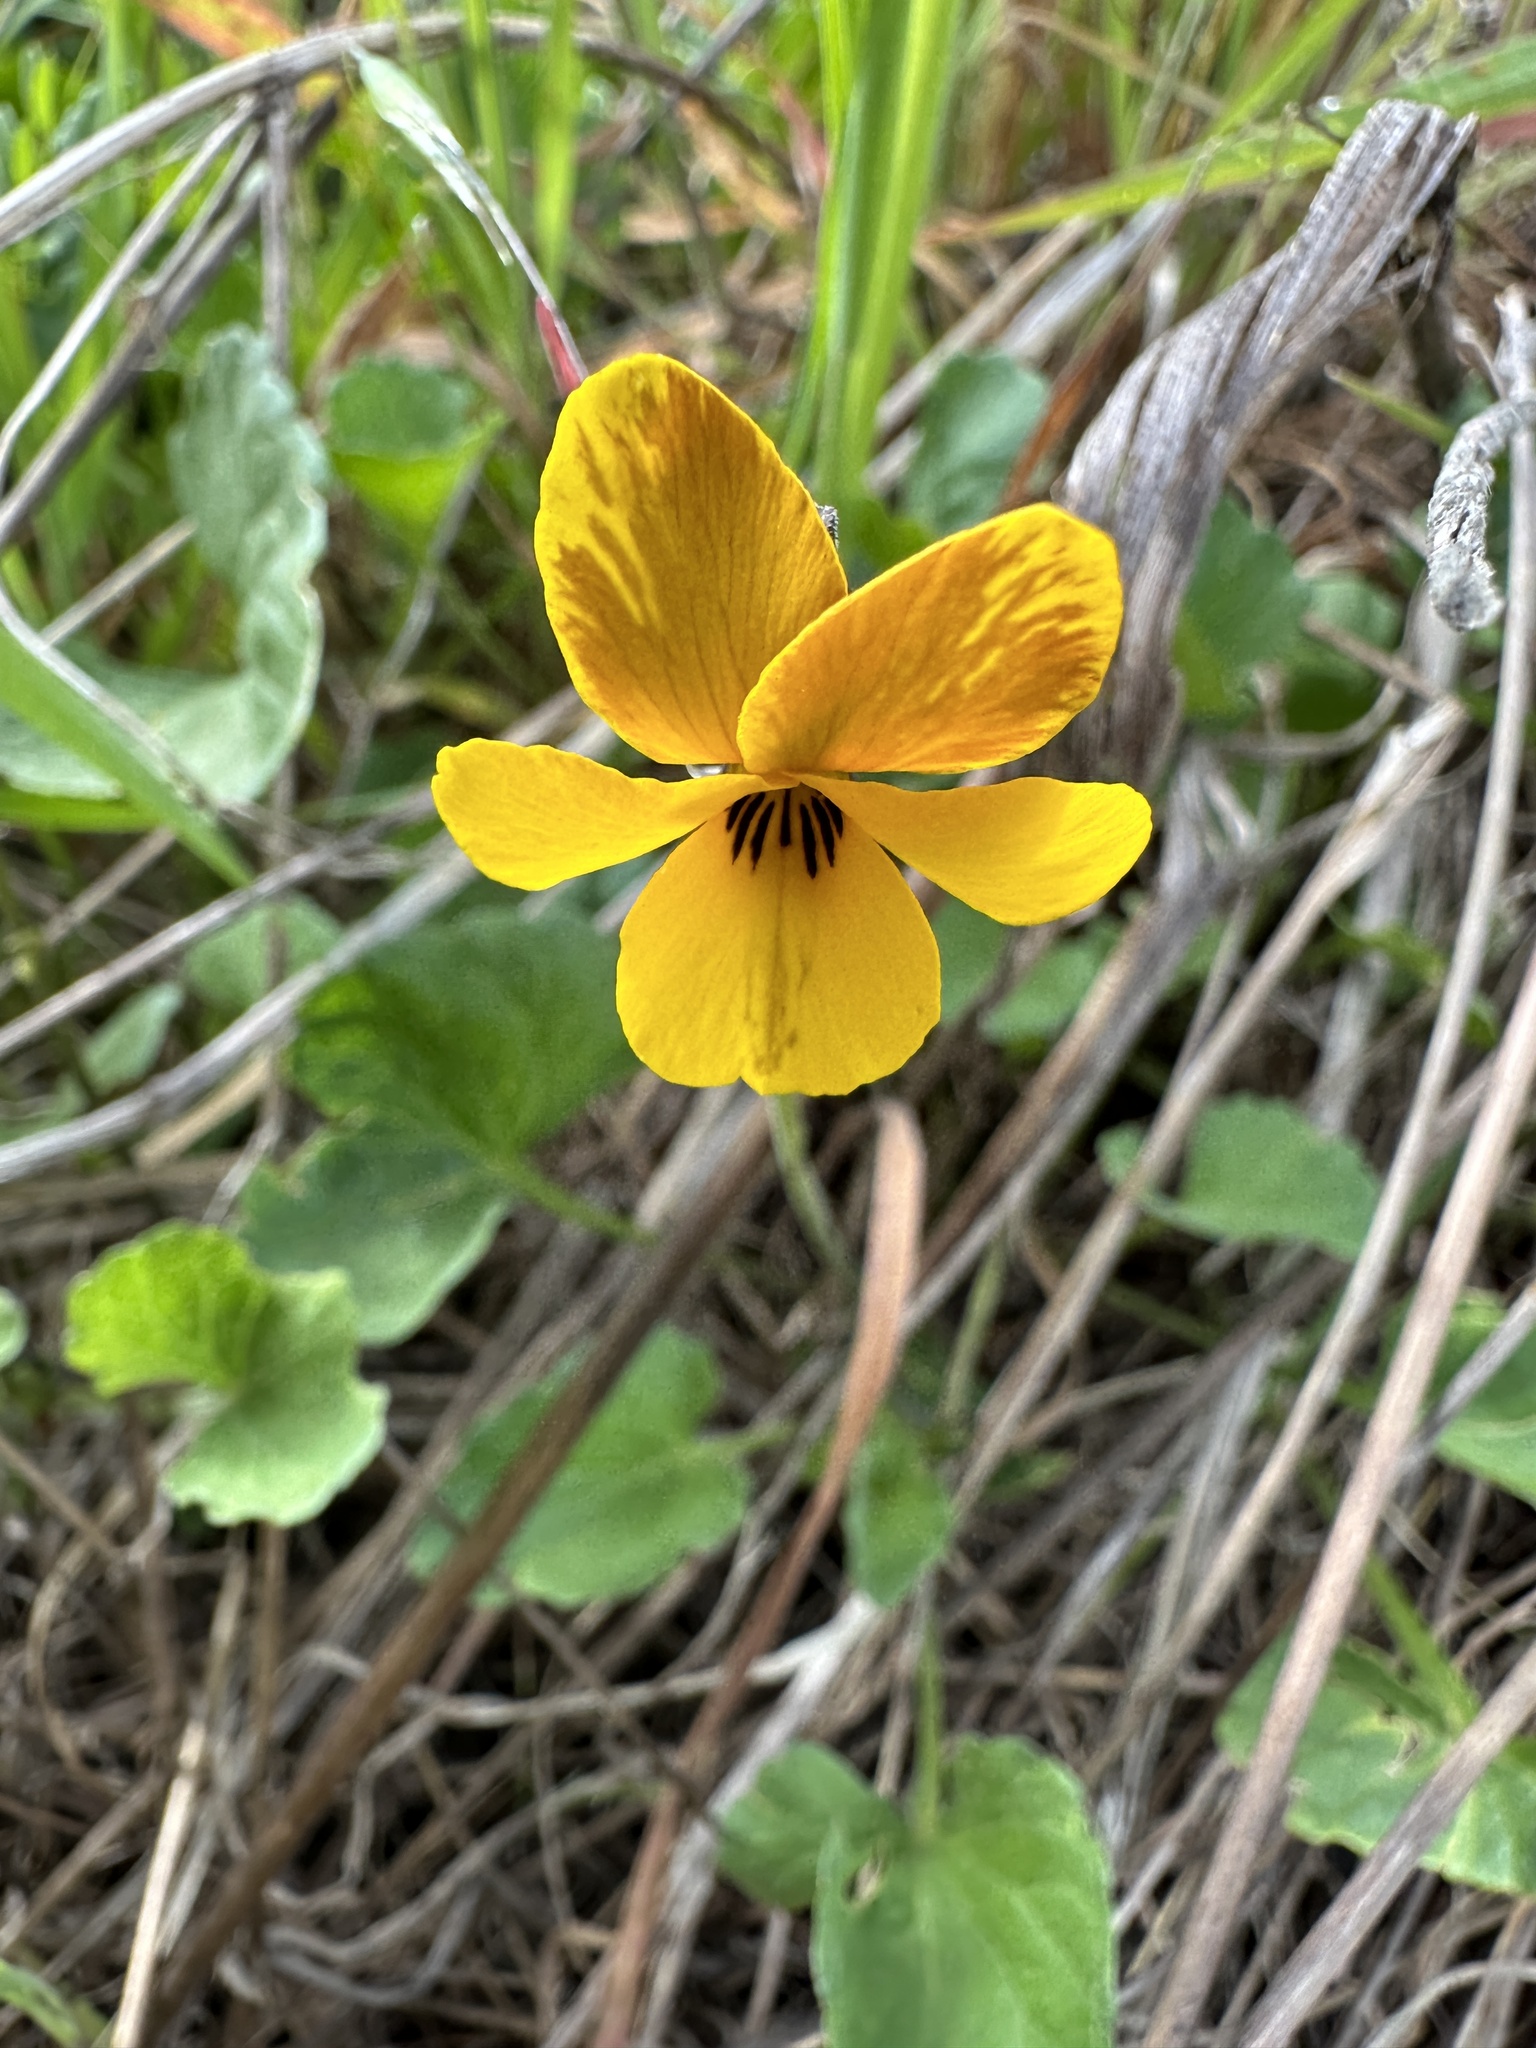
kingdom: Plantae
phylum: Tracheophyta
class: Magnoliopsida
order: Malpighiales
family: Violaceae
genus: Viola
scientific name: Viola pedunculata
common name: California golden violet
